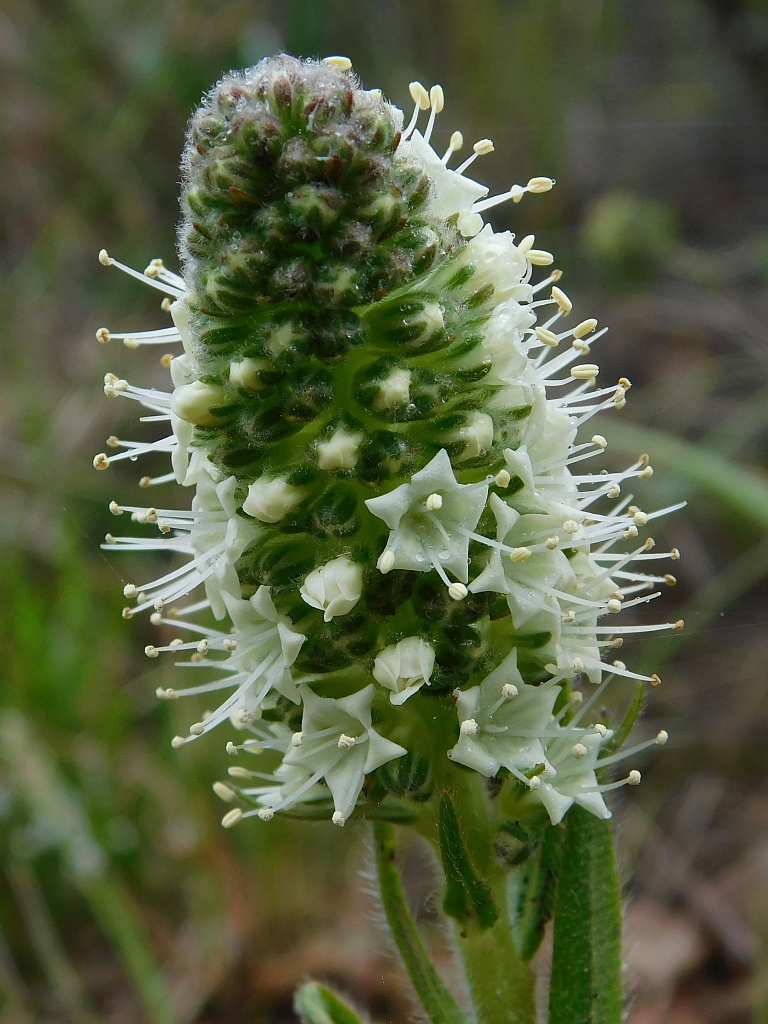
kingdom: Plantae
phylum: Tracheophyta
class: Magnoliopsida
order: Boraginales
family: Boraginaceae
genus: Lobostemon
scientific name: Lobostemon splendens
